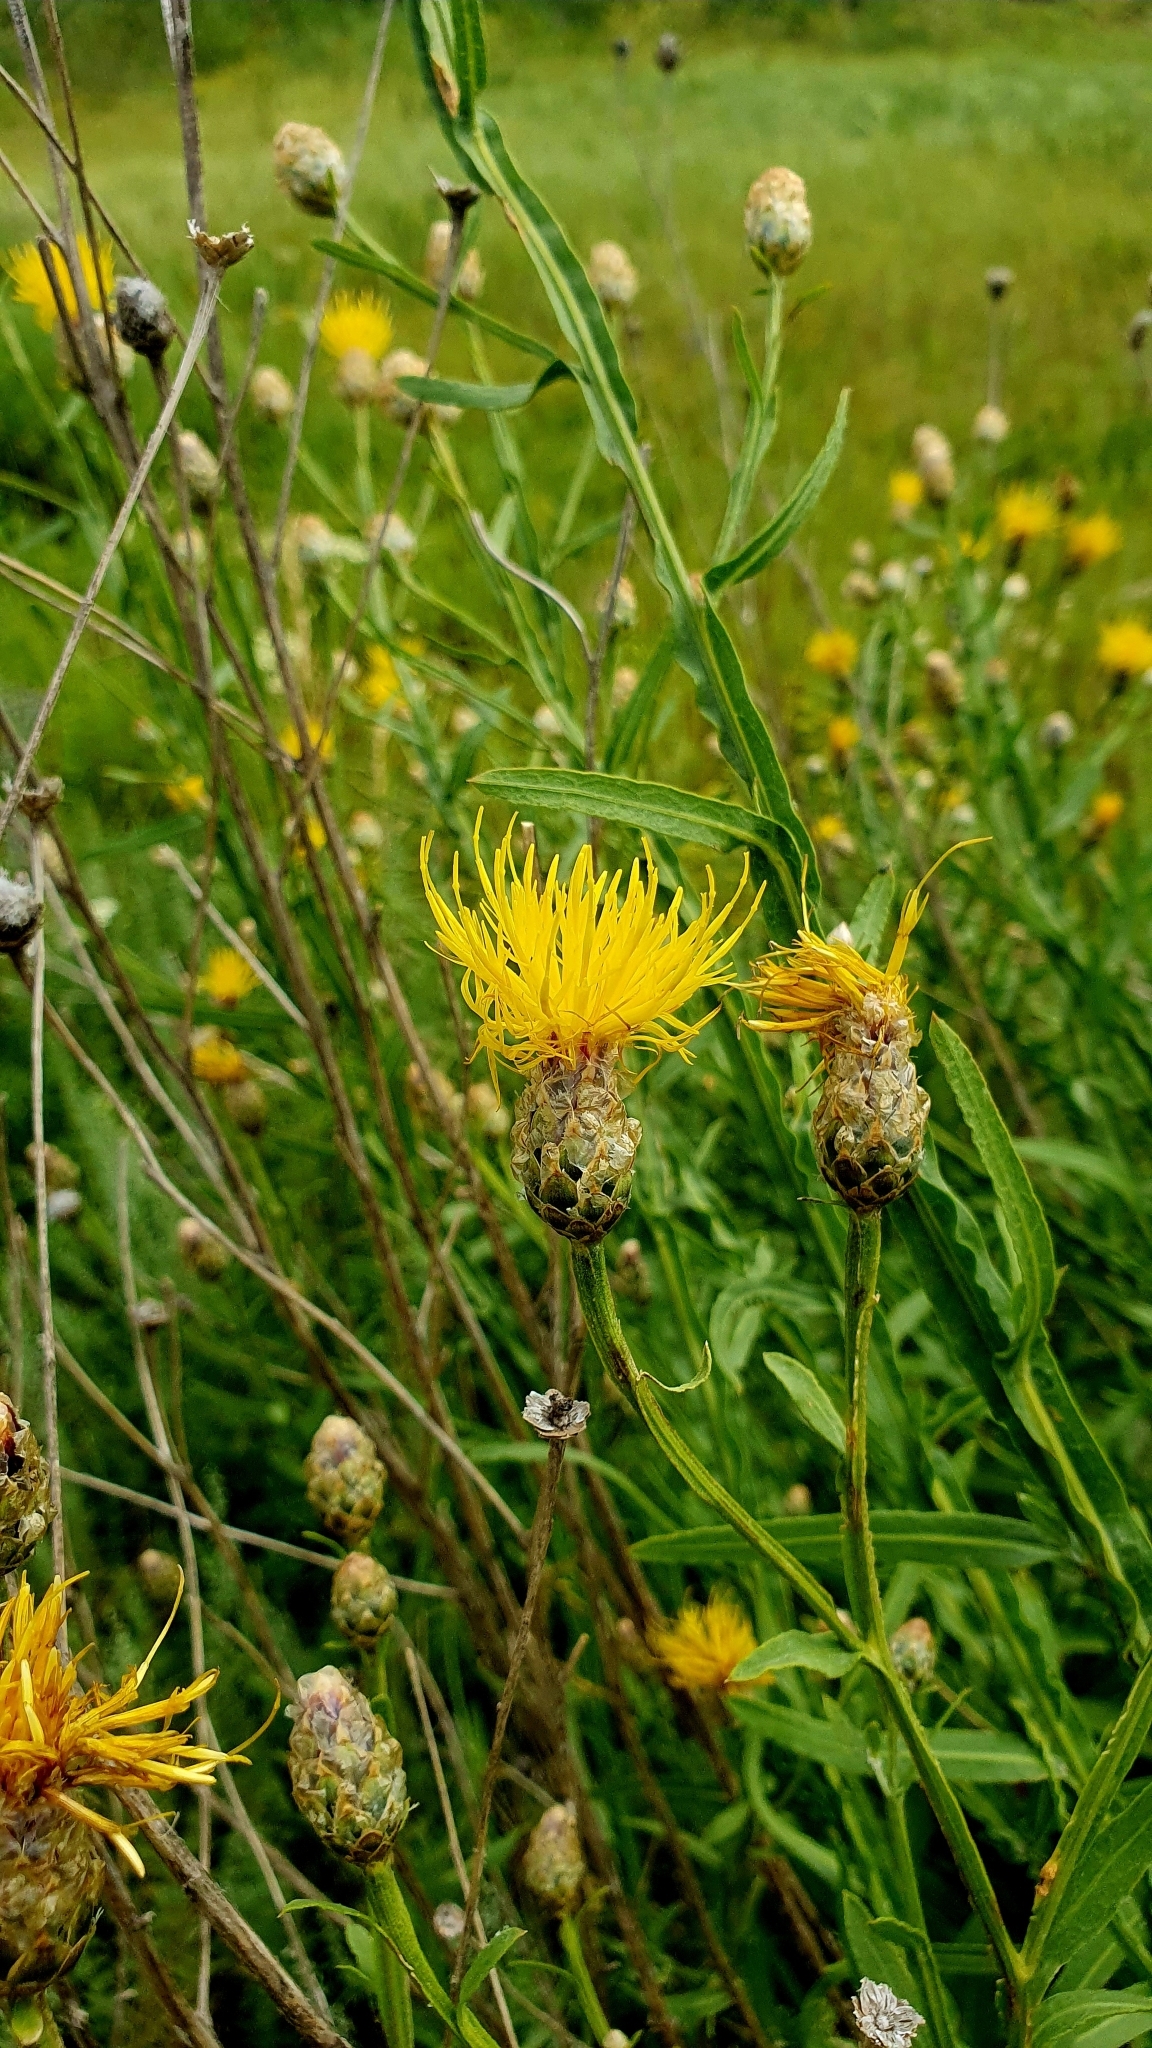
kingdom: Plantae
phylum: Tracheophyta
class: Magnoliopsida
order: Asterales
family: Asteraceae
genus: Centaurea
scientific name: Centaurea glastifolia
